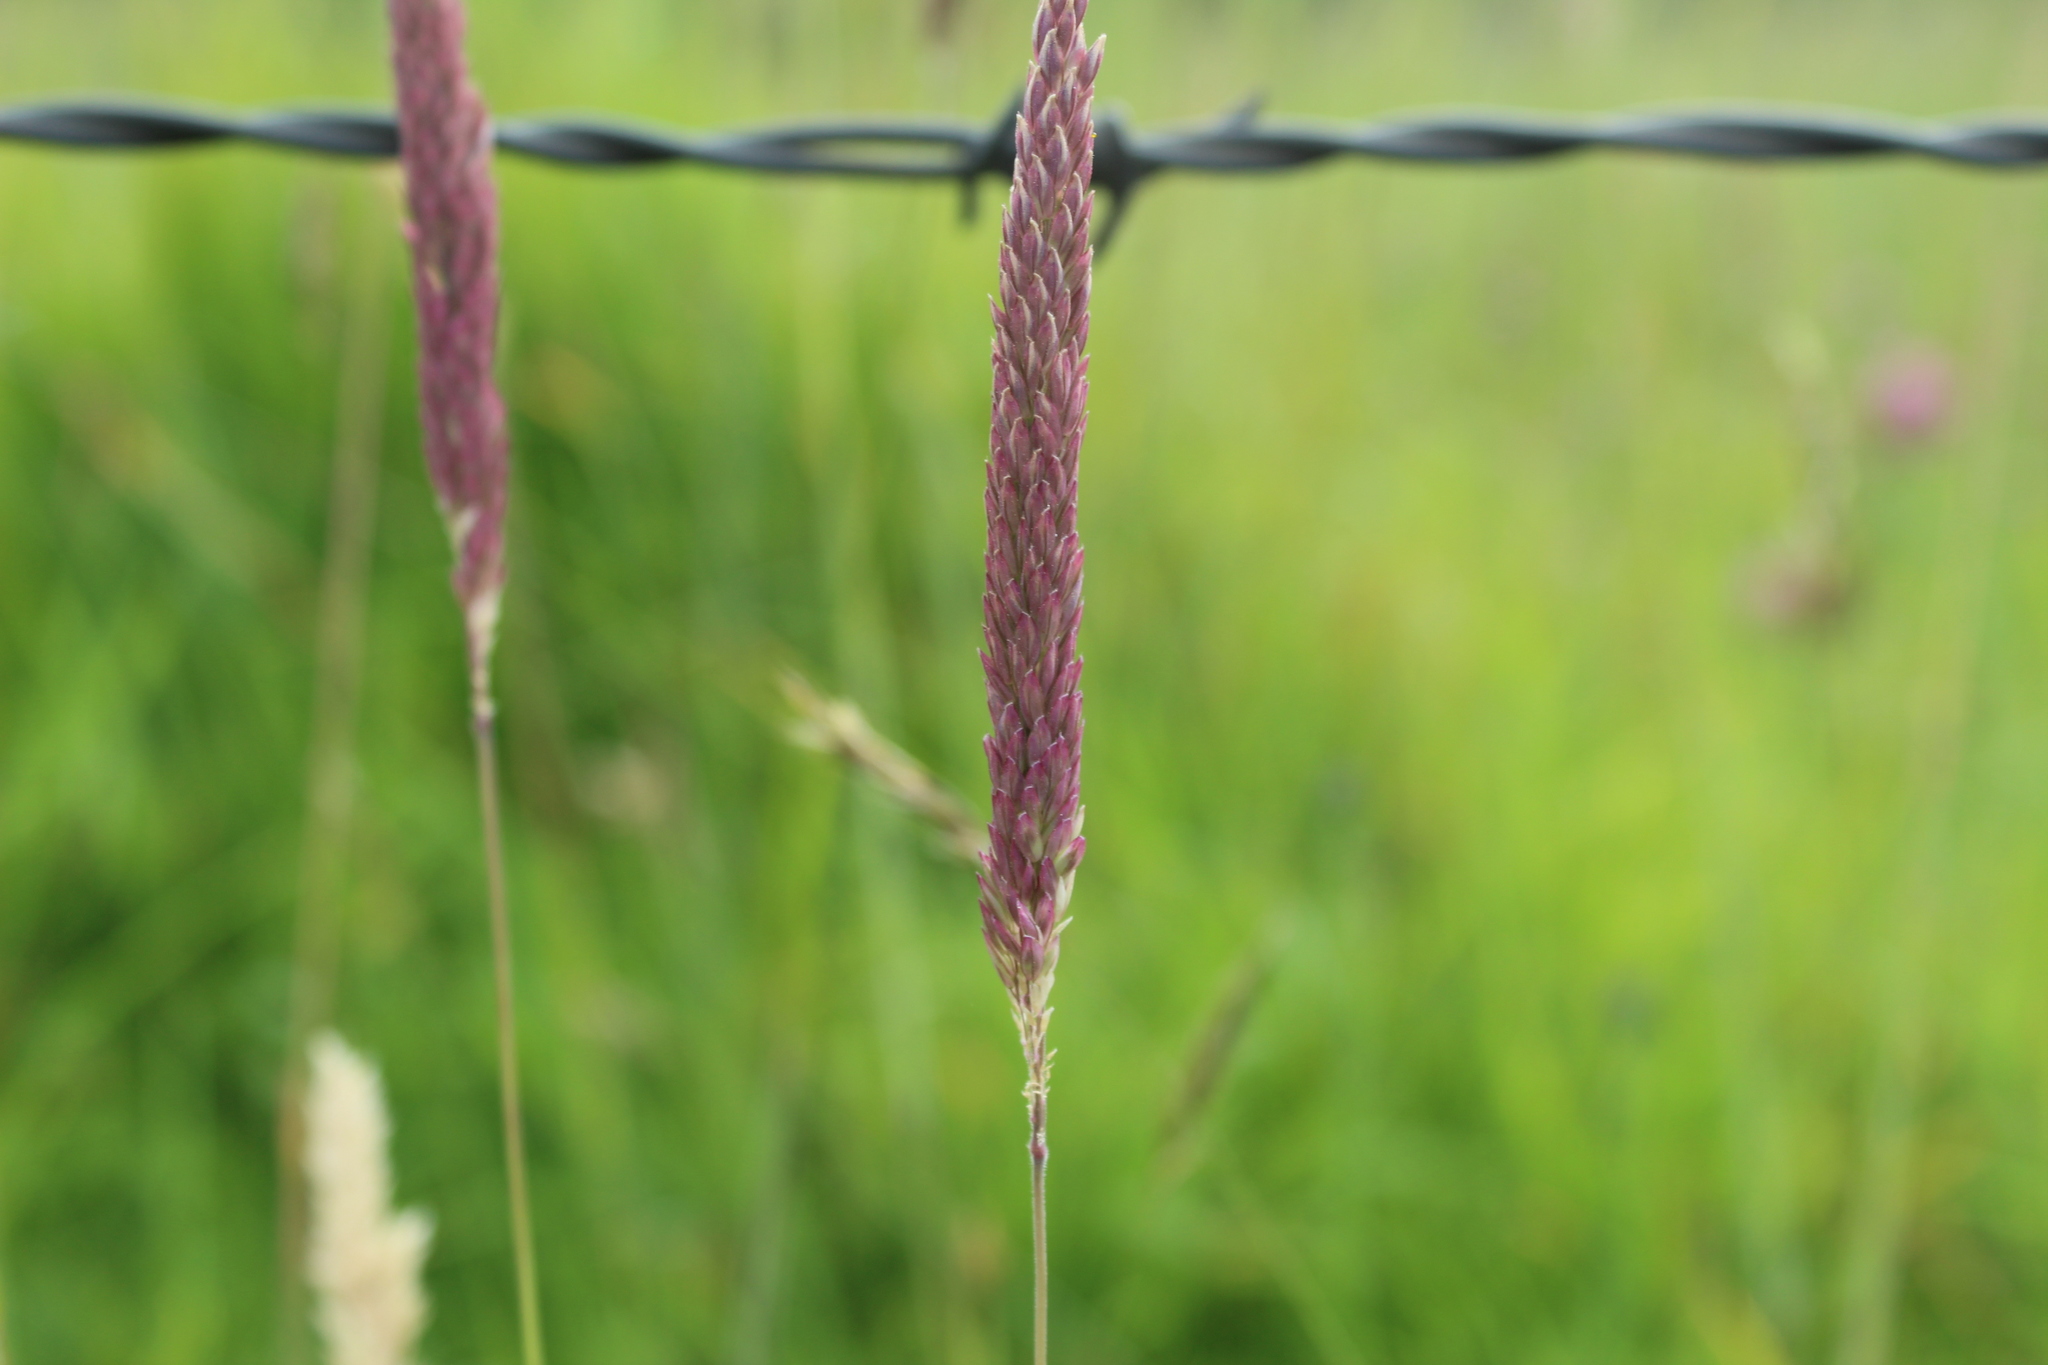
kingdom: Plantae
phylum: Tracheophyta
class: Liliopsida
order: Poales
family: Poaceae
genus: Holcus
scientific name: Holcus lanatus
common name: Yorkshire-fog
